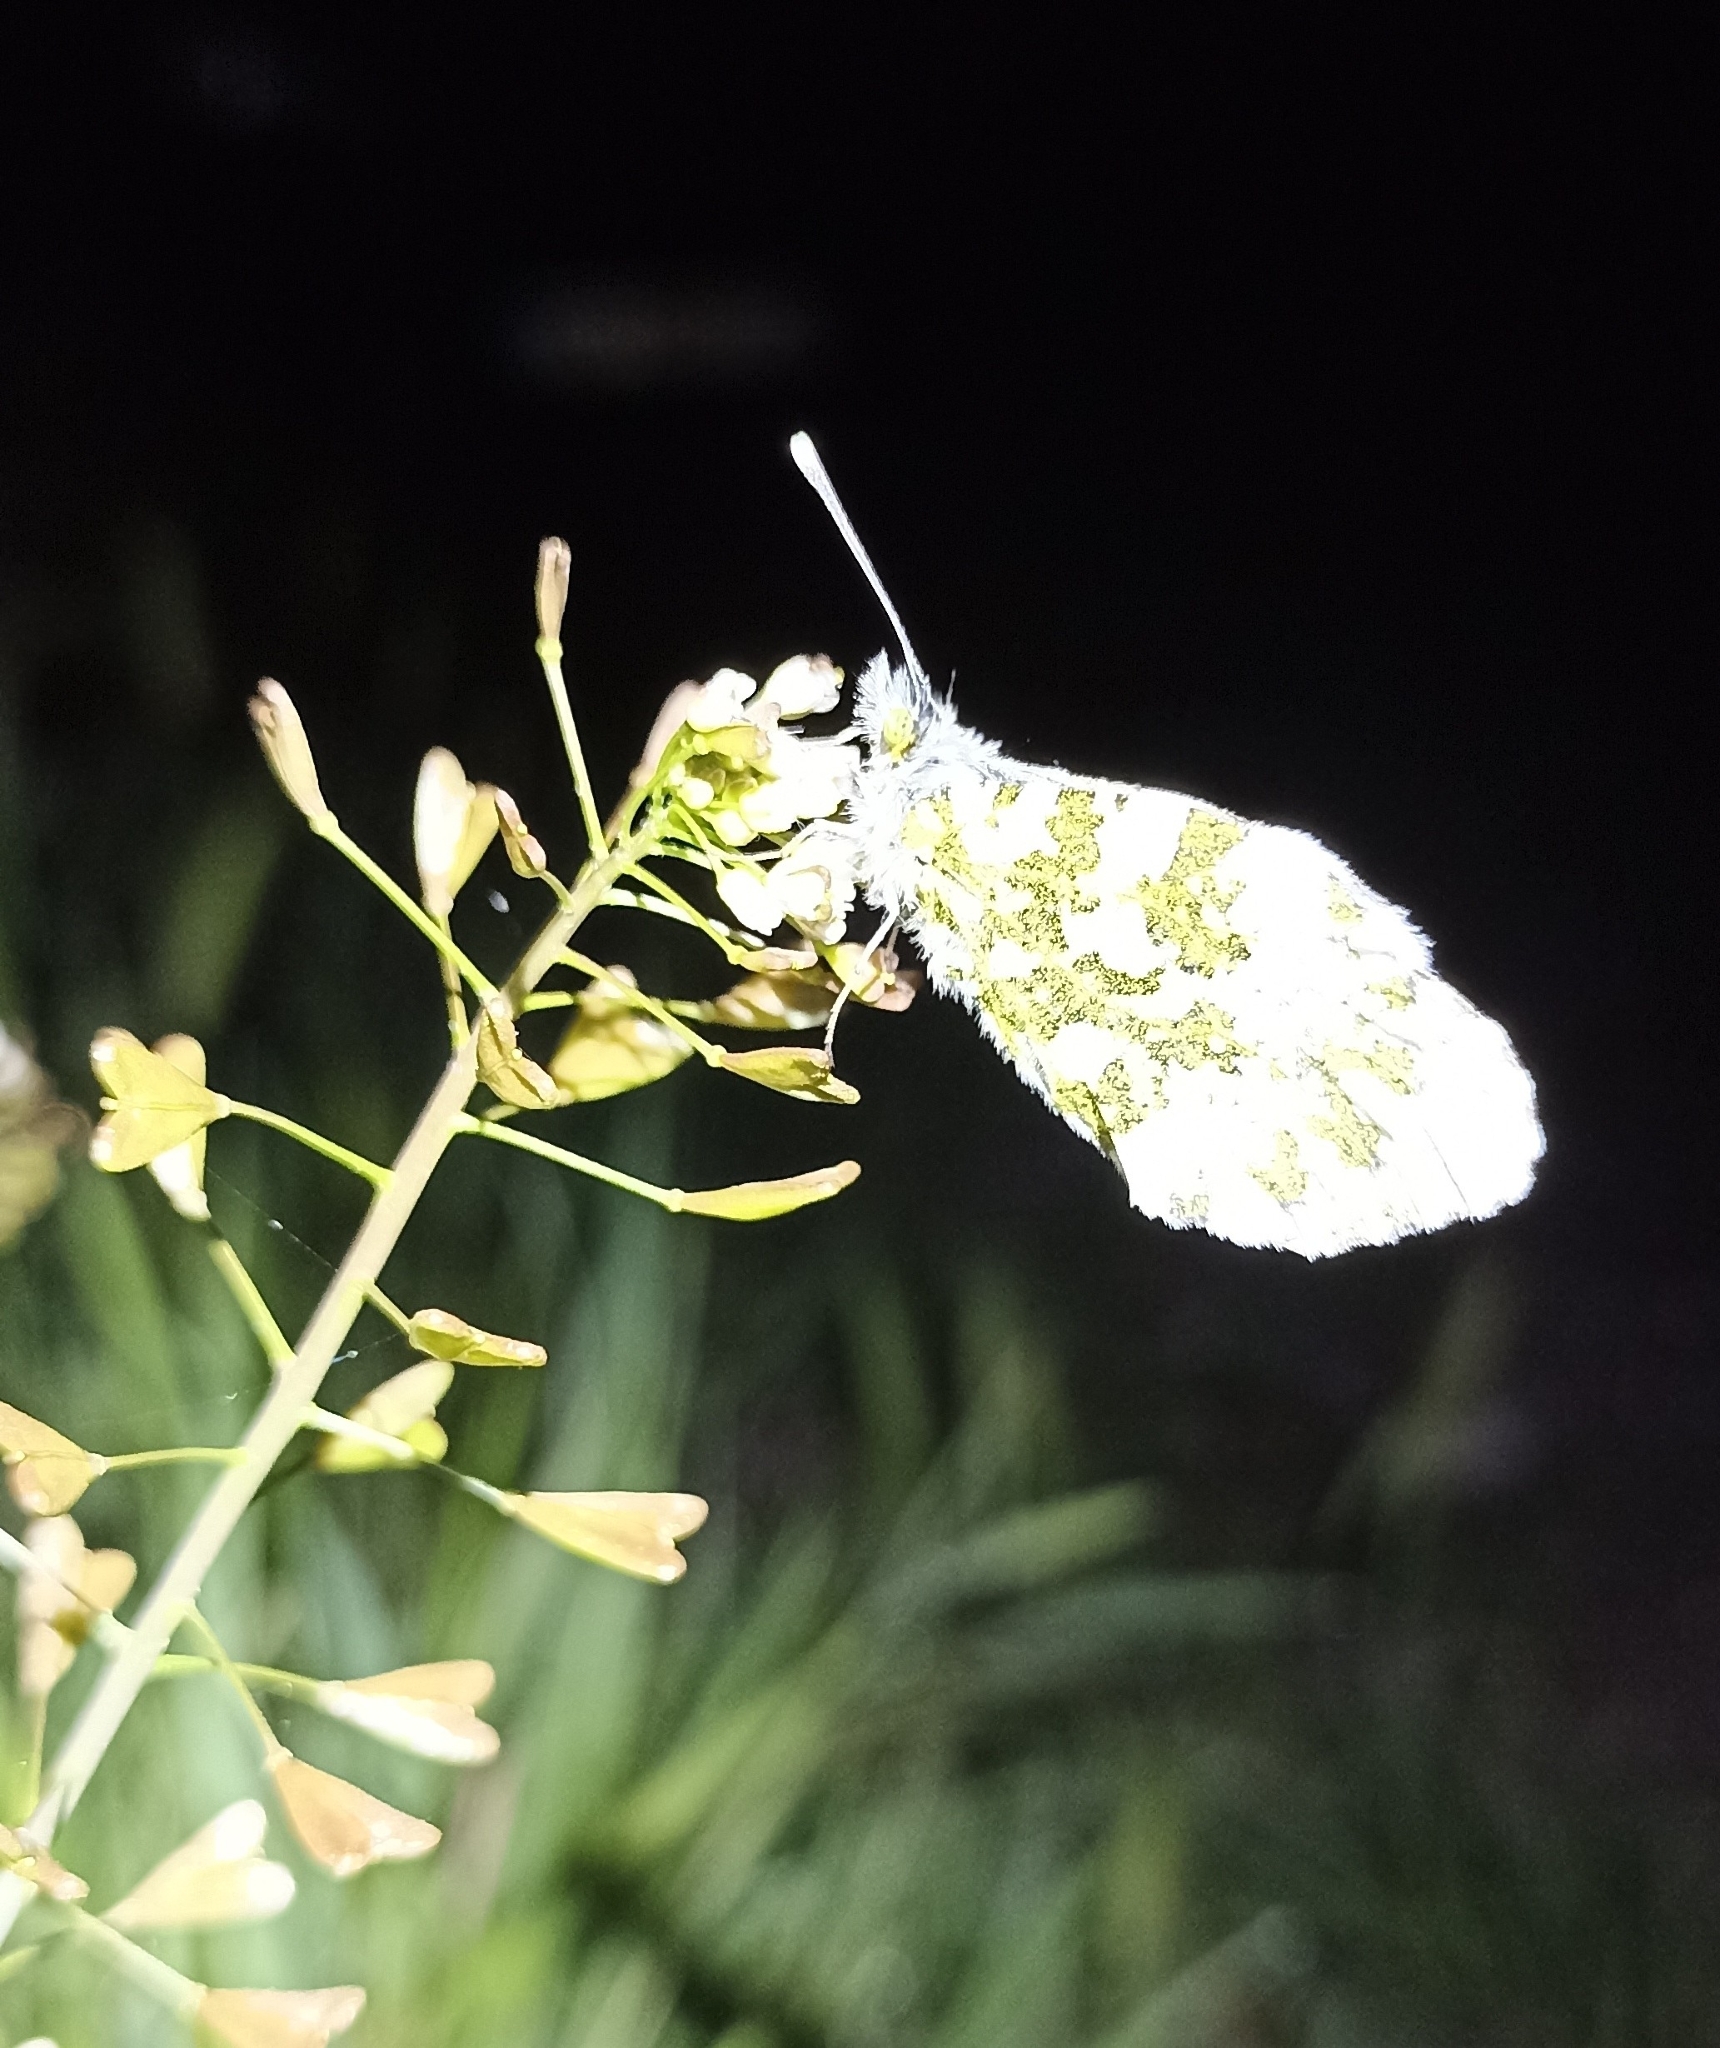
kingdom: Animalia
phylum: Arthropoda
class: Insecta
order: Lepidoptera
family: Pieridae
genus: Anthocharis
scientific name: Anthocharis cardamines
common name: Orange-tip
